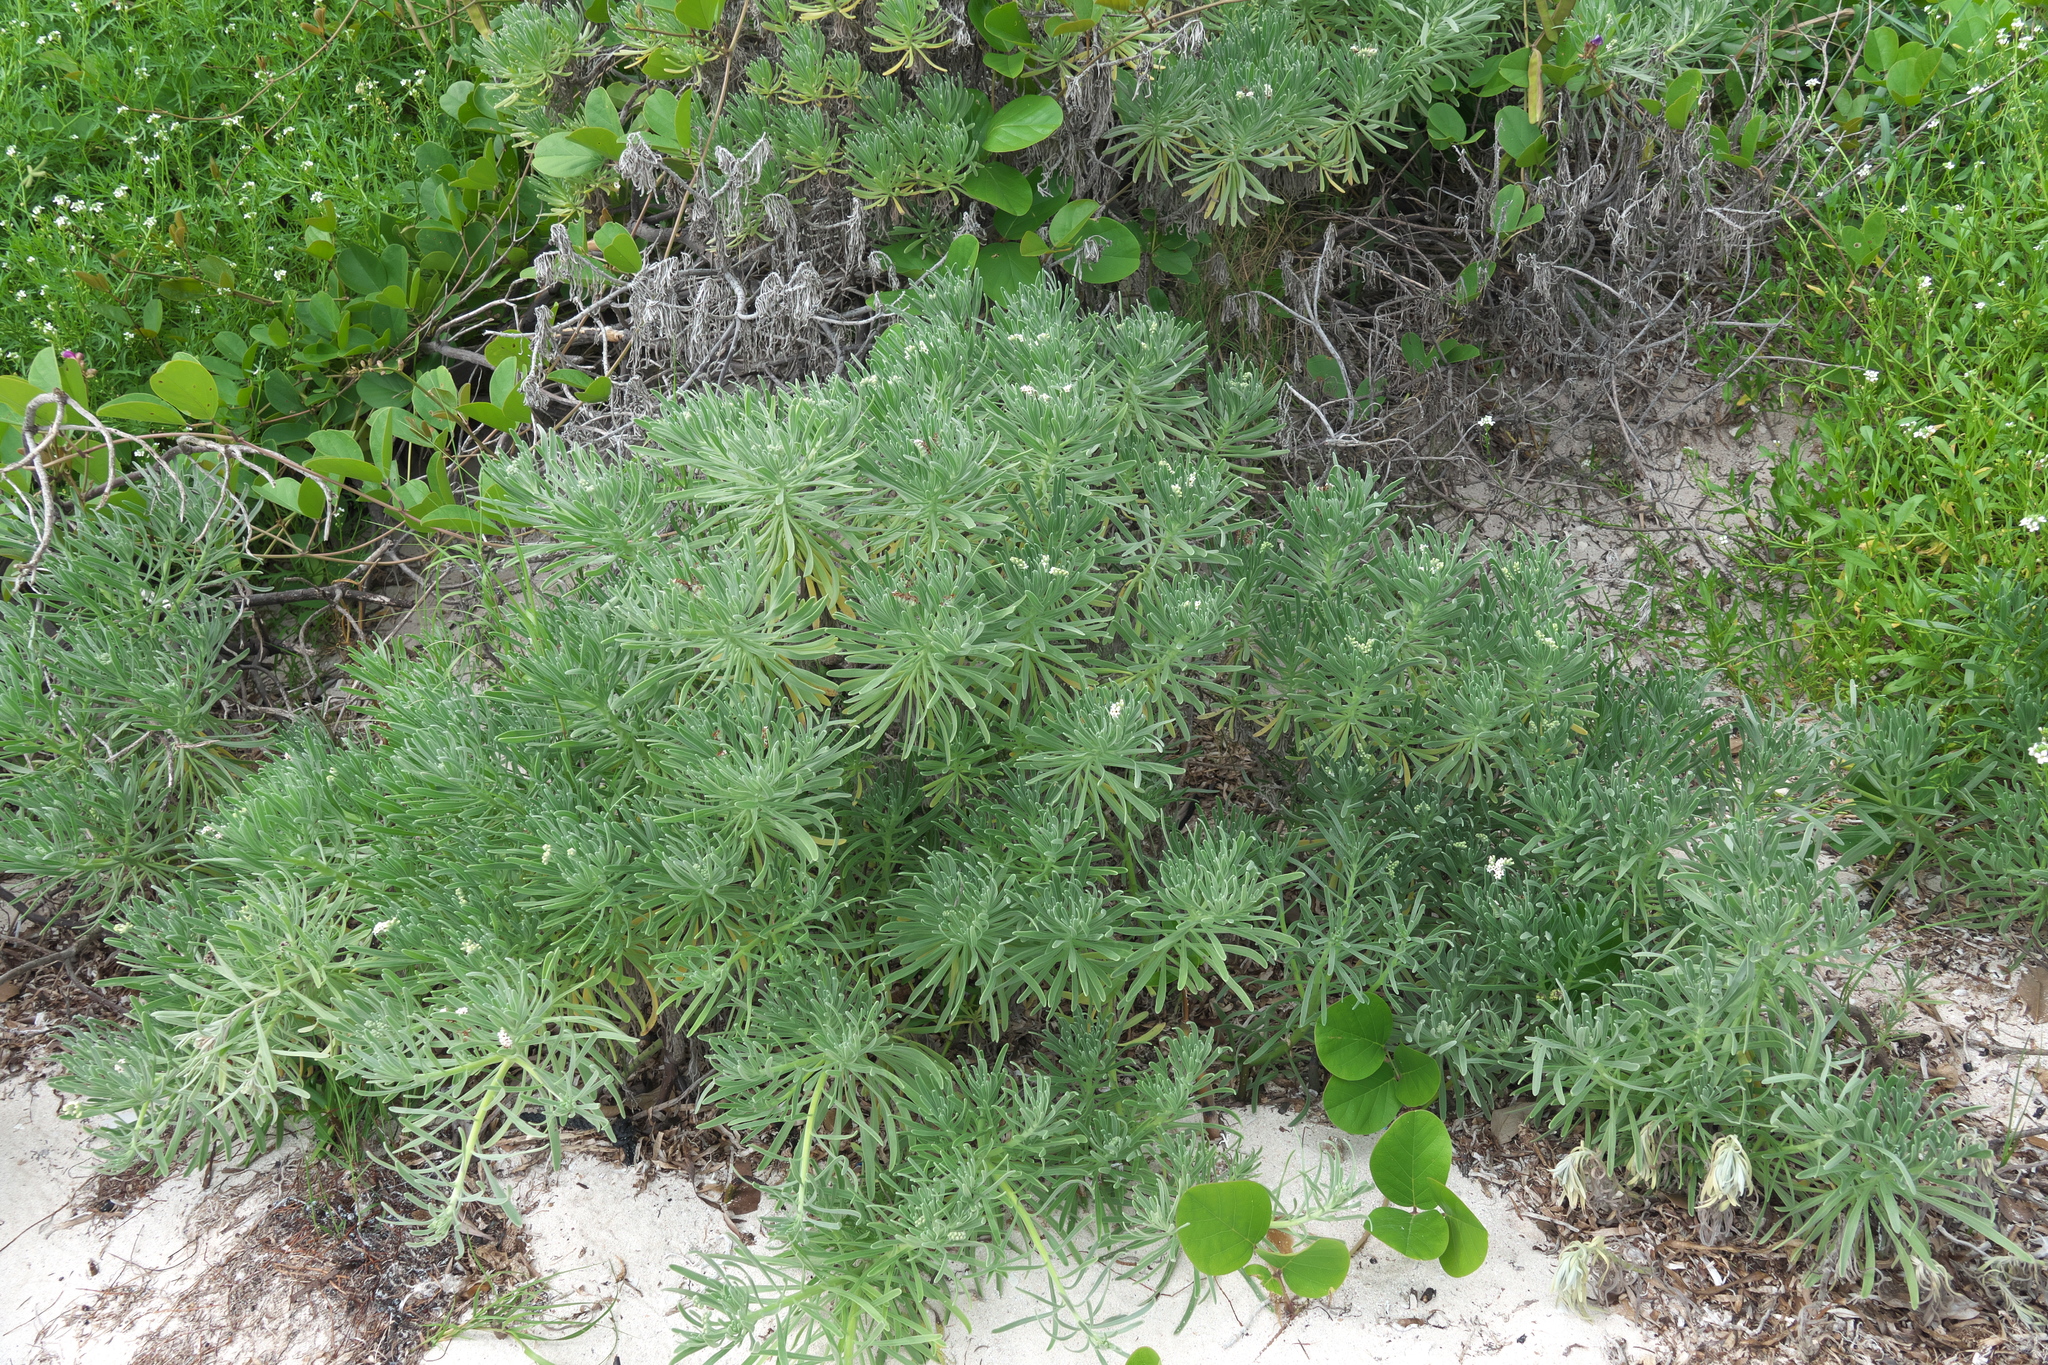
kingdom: Plantae
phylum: Tracheophyta
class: Magnoliopsida
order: Boraginales
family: Heliotropiaceae
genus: Tournefortia
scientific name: Tournefortia gnaphalodes
